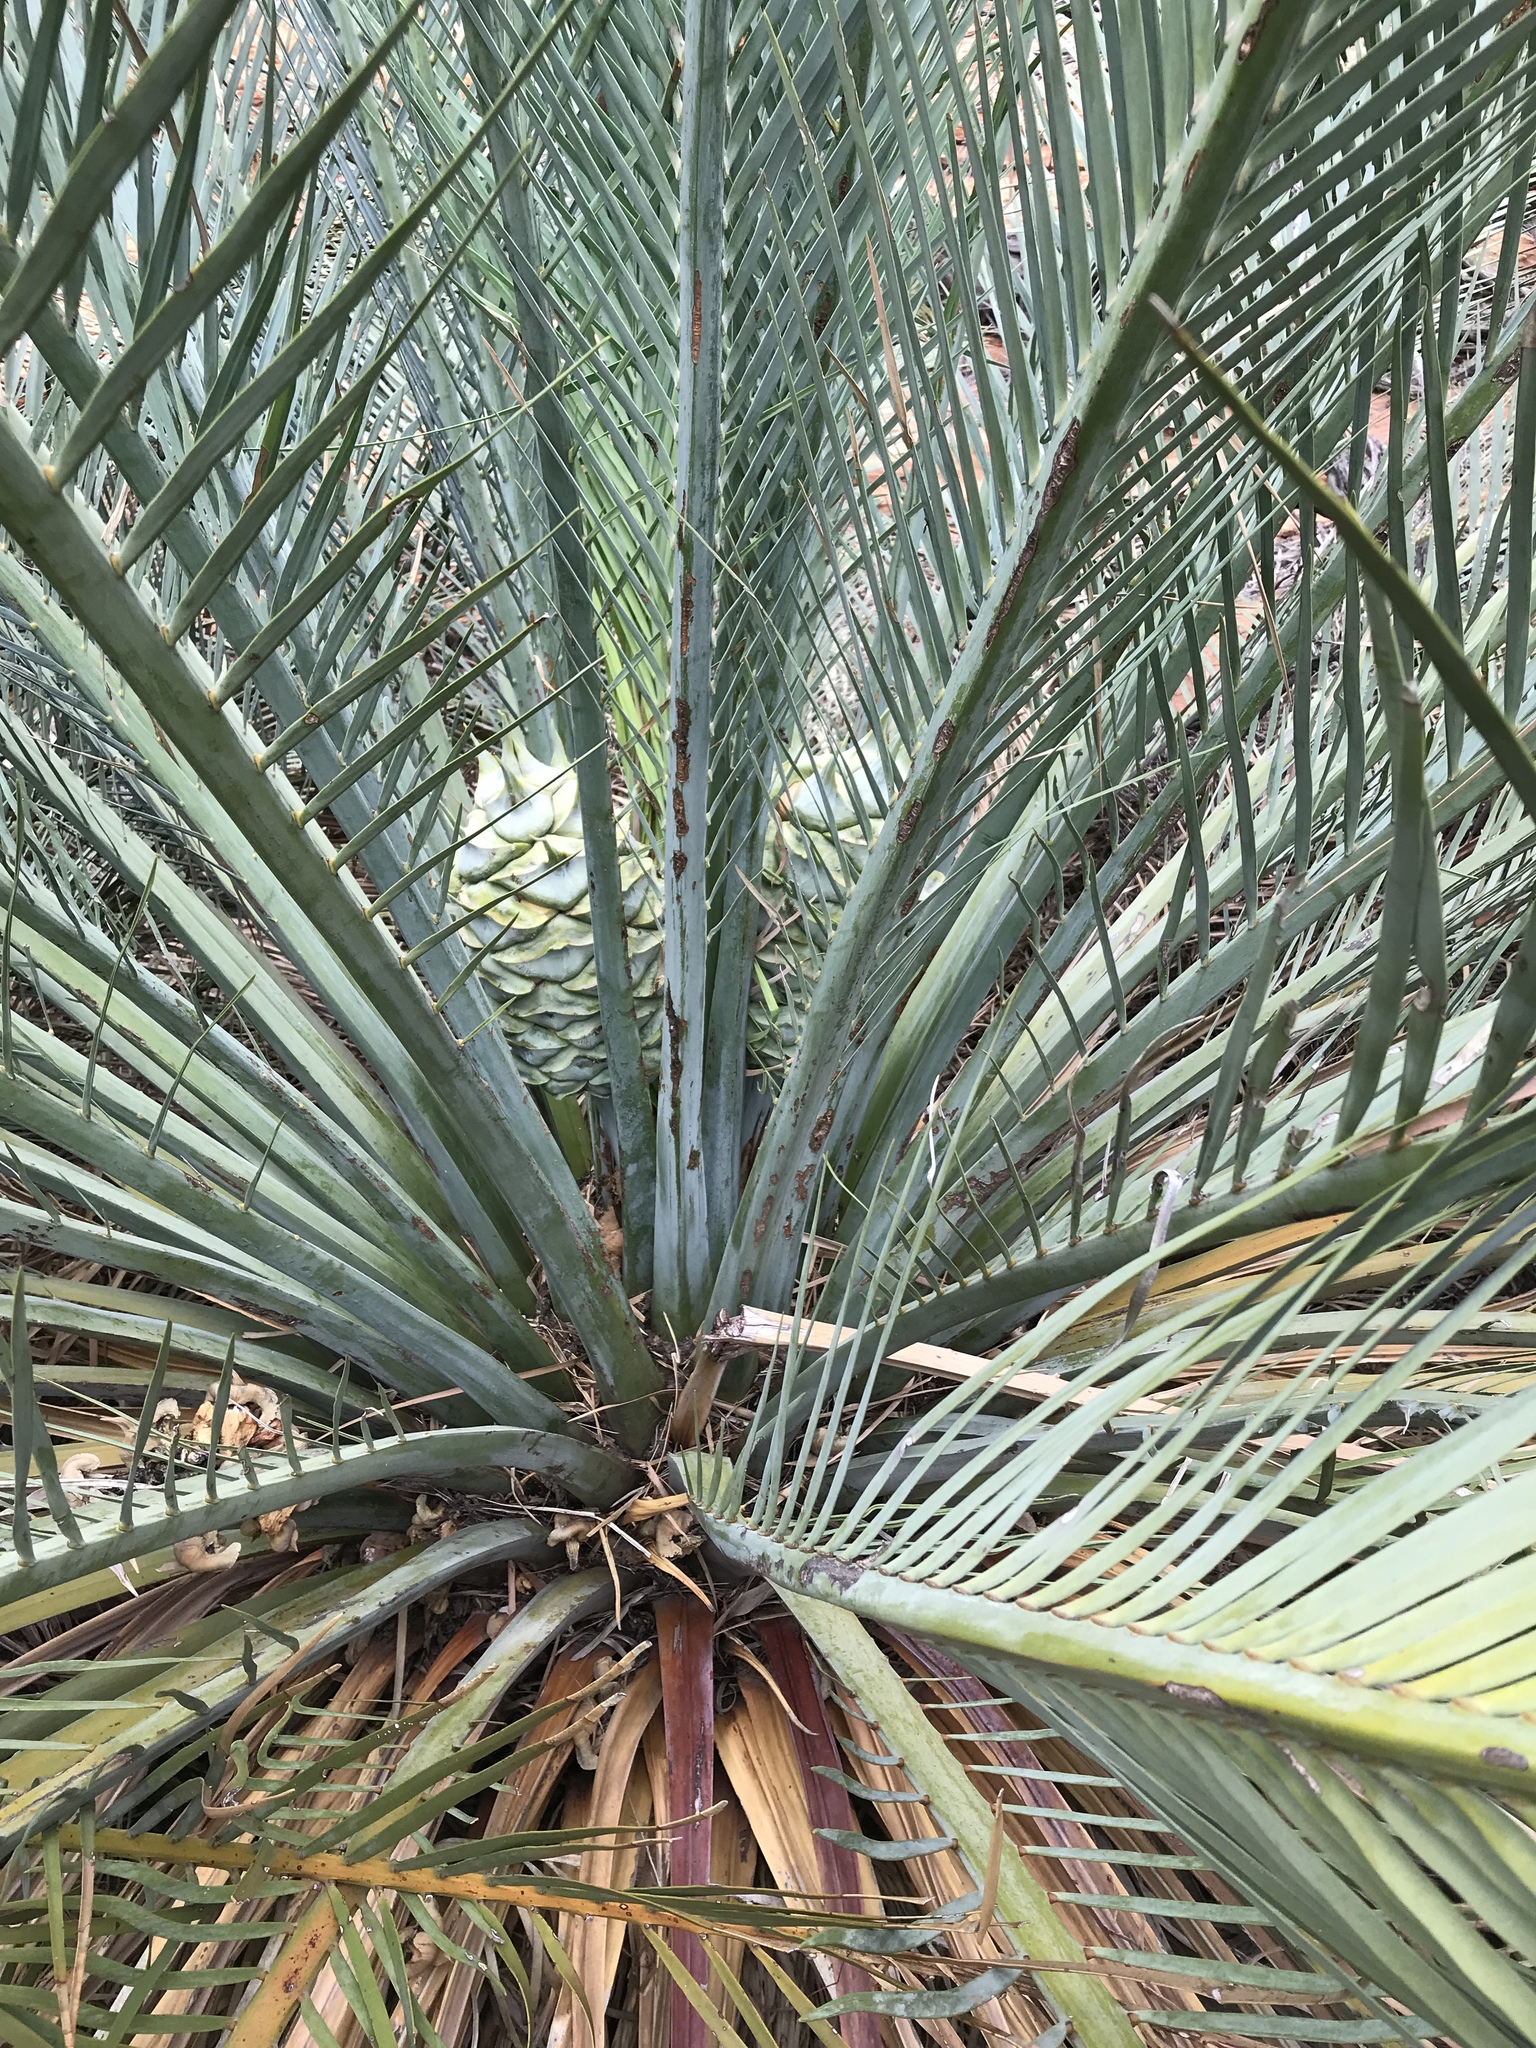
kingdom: Plantae
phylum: Tracheophyta
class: Cycadopsida
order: Cycadales
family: Zamiaceae
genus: Macrozamia
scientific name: Macrozamia macdonnellii
